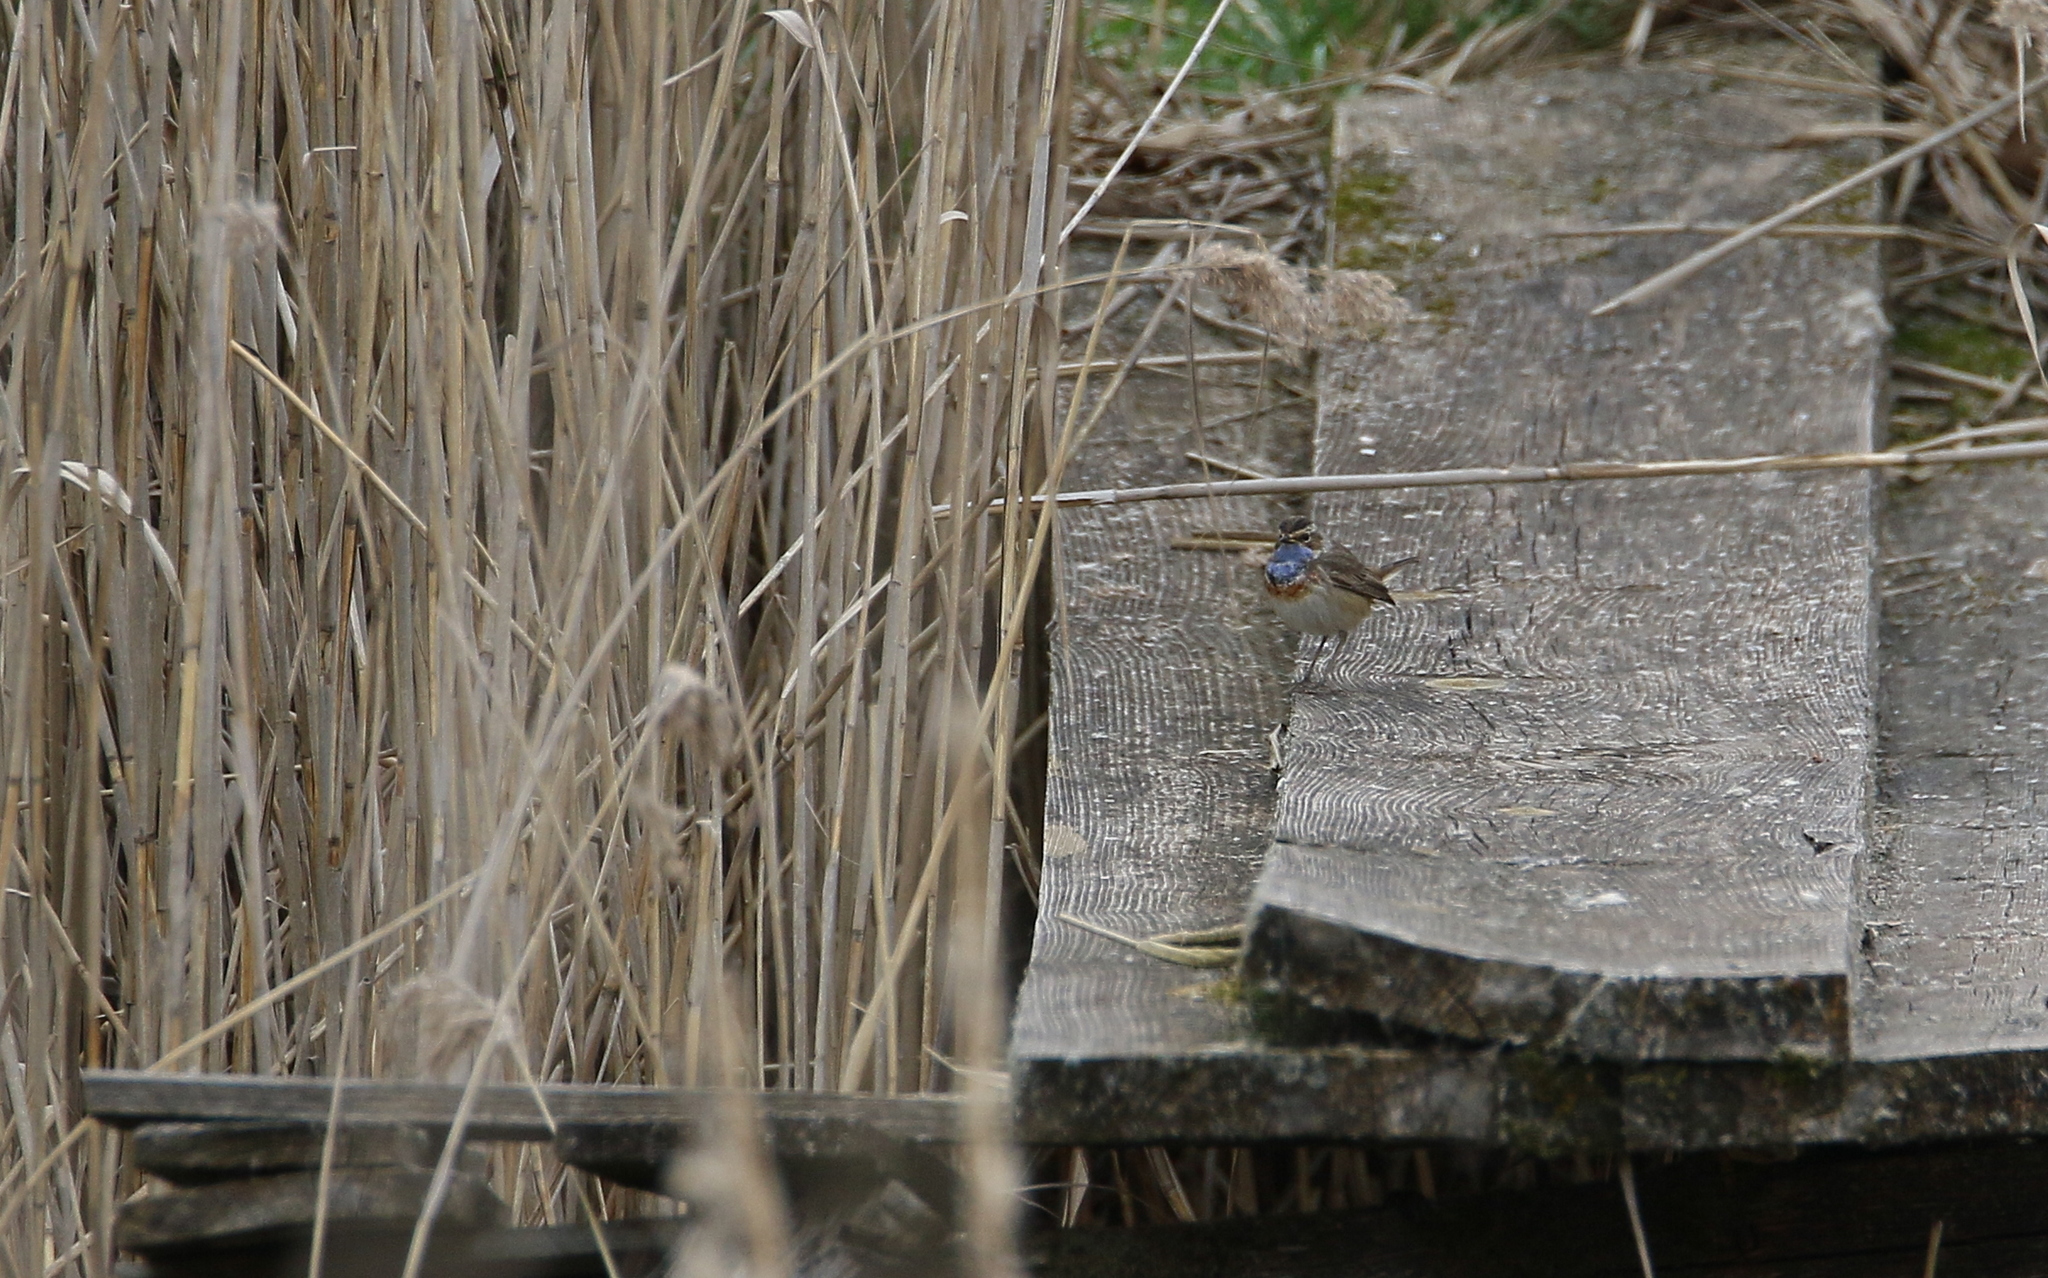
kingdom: Animalia
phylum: Chordata
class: Aves
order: Passeriformes
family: Muscicapidae
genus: Luscinia
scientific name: Luscinia svecica
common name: Bluethroat
